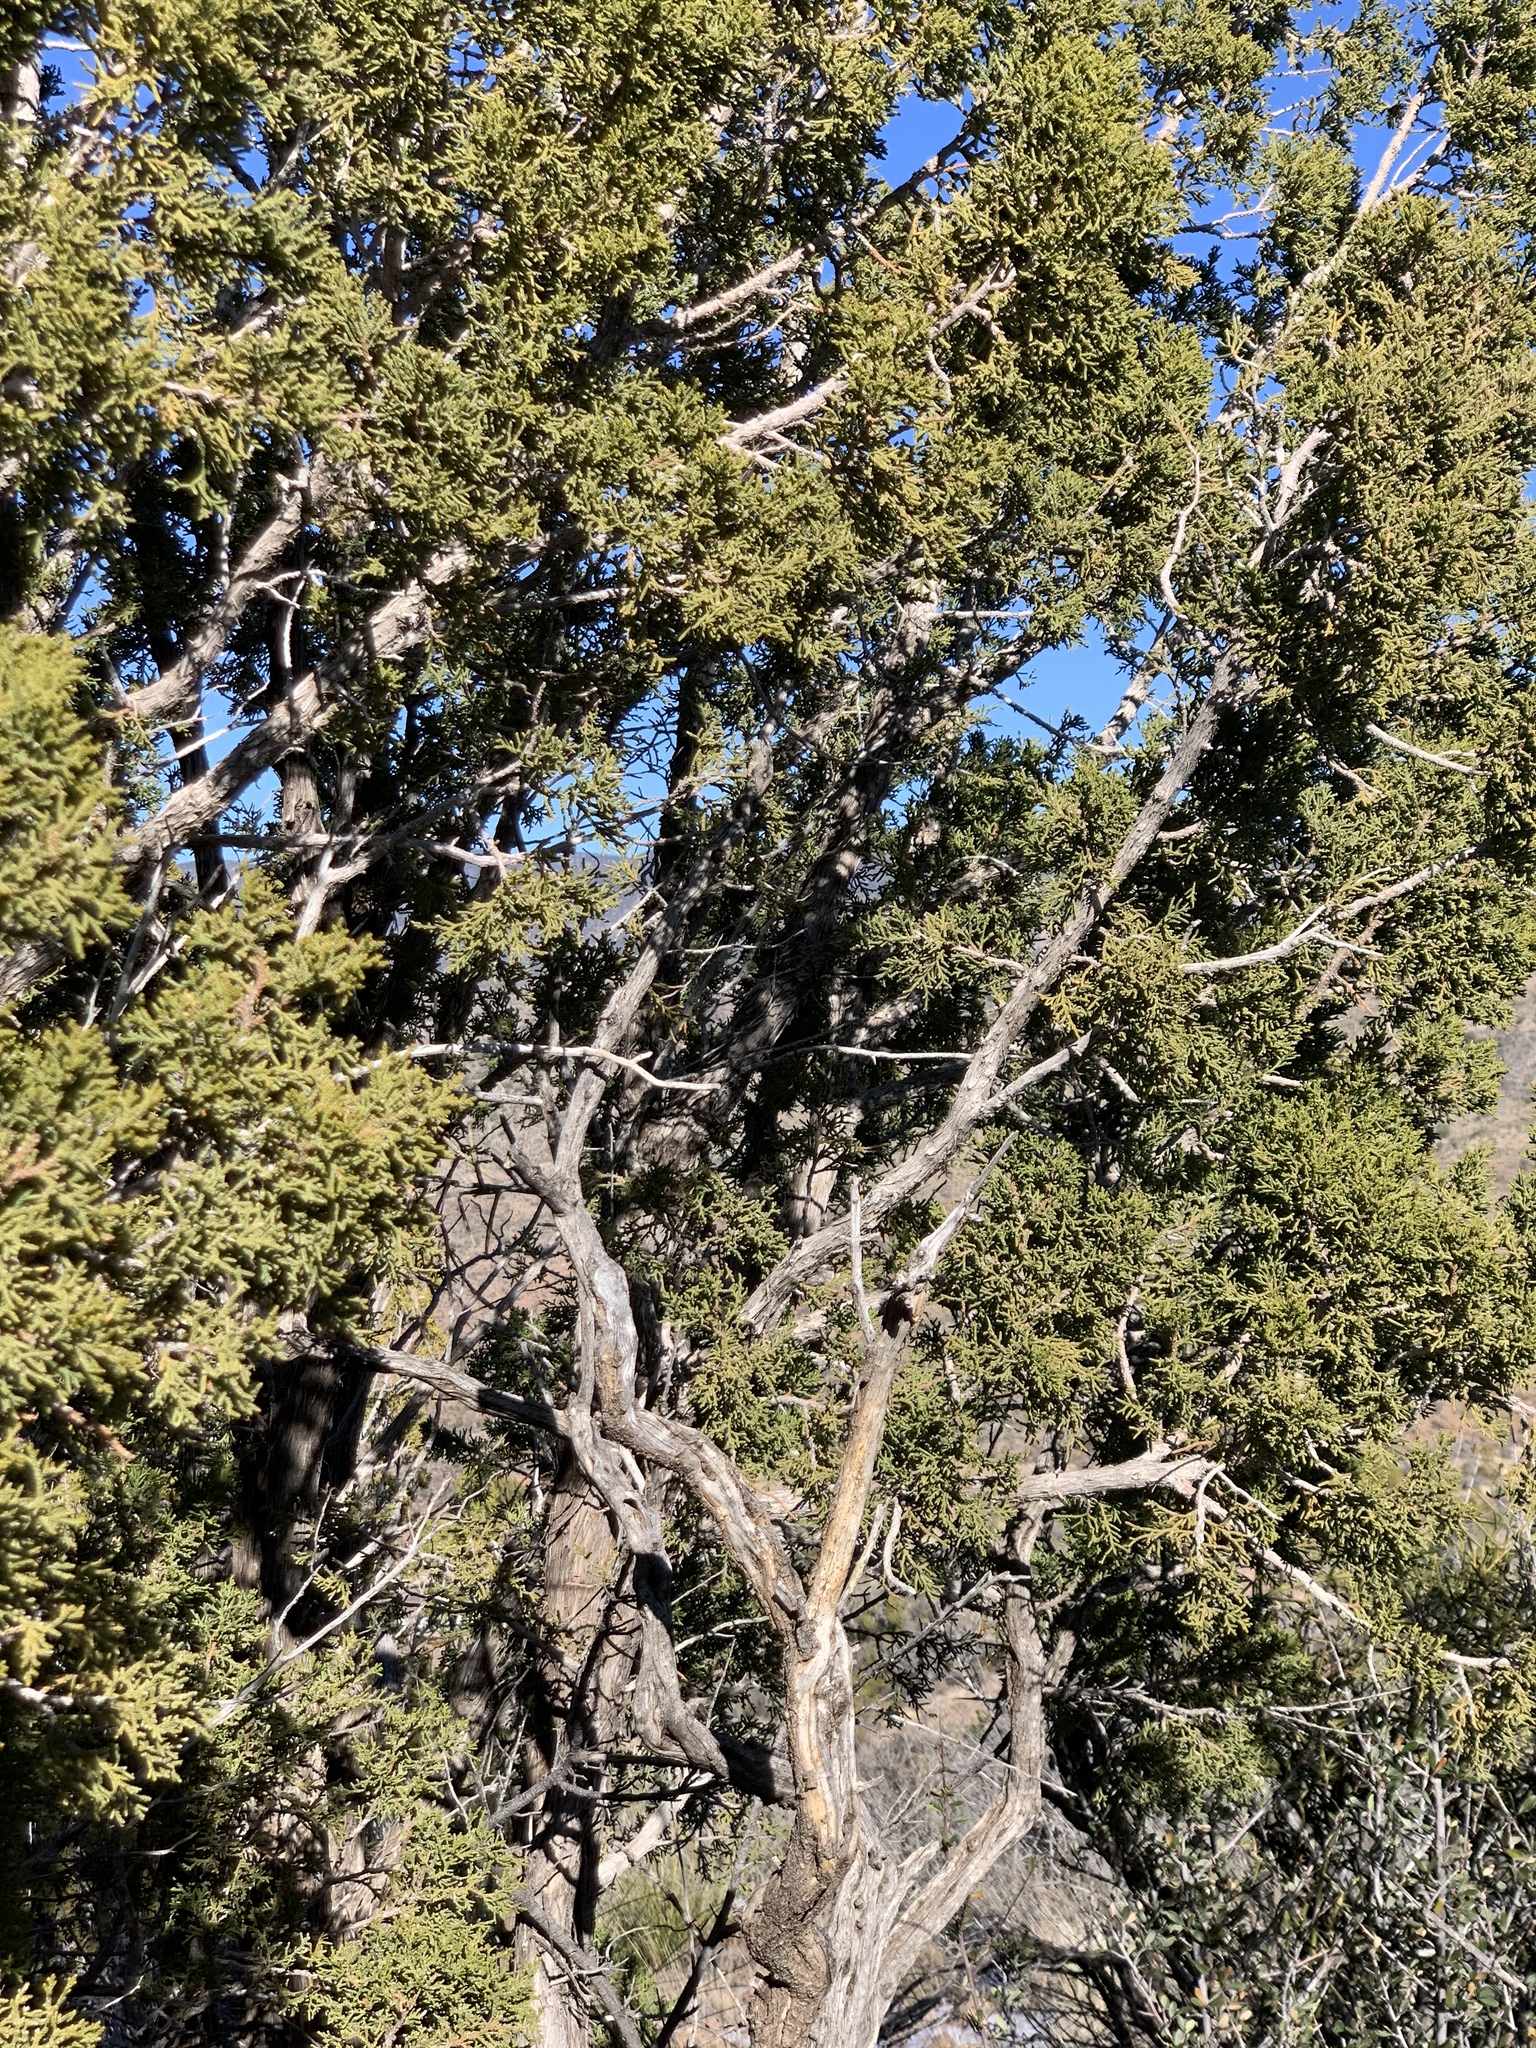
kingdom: Plantae
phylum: Tracheophyta
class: Pinopsida
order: Pinales
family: Cupressaceae
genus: Juniperus
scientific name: Juniperus monosperma
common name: One-seed juniper
